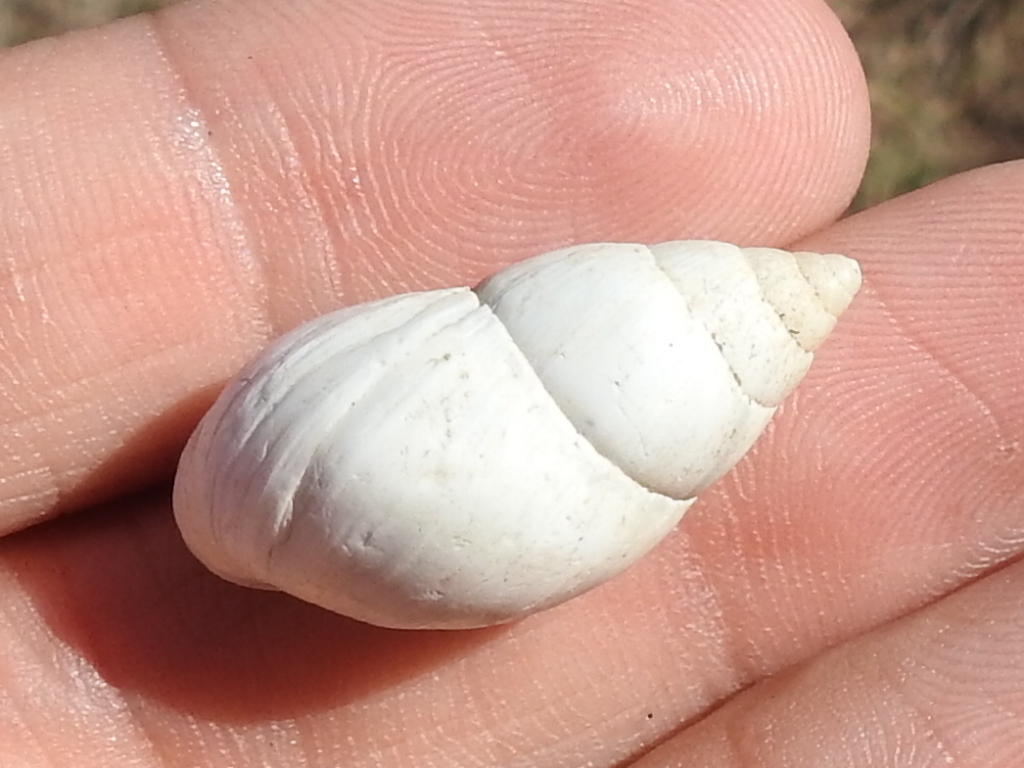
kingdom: Animalia
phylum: Mollusca
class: Gastropoda
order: Stylommatophora
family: Bulimulidae
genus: Rabdotus
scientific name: Rabdotus alternatus
